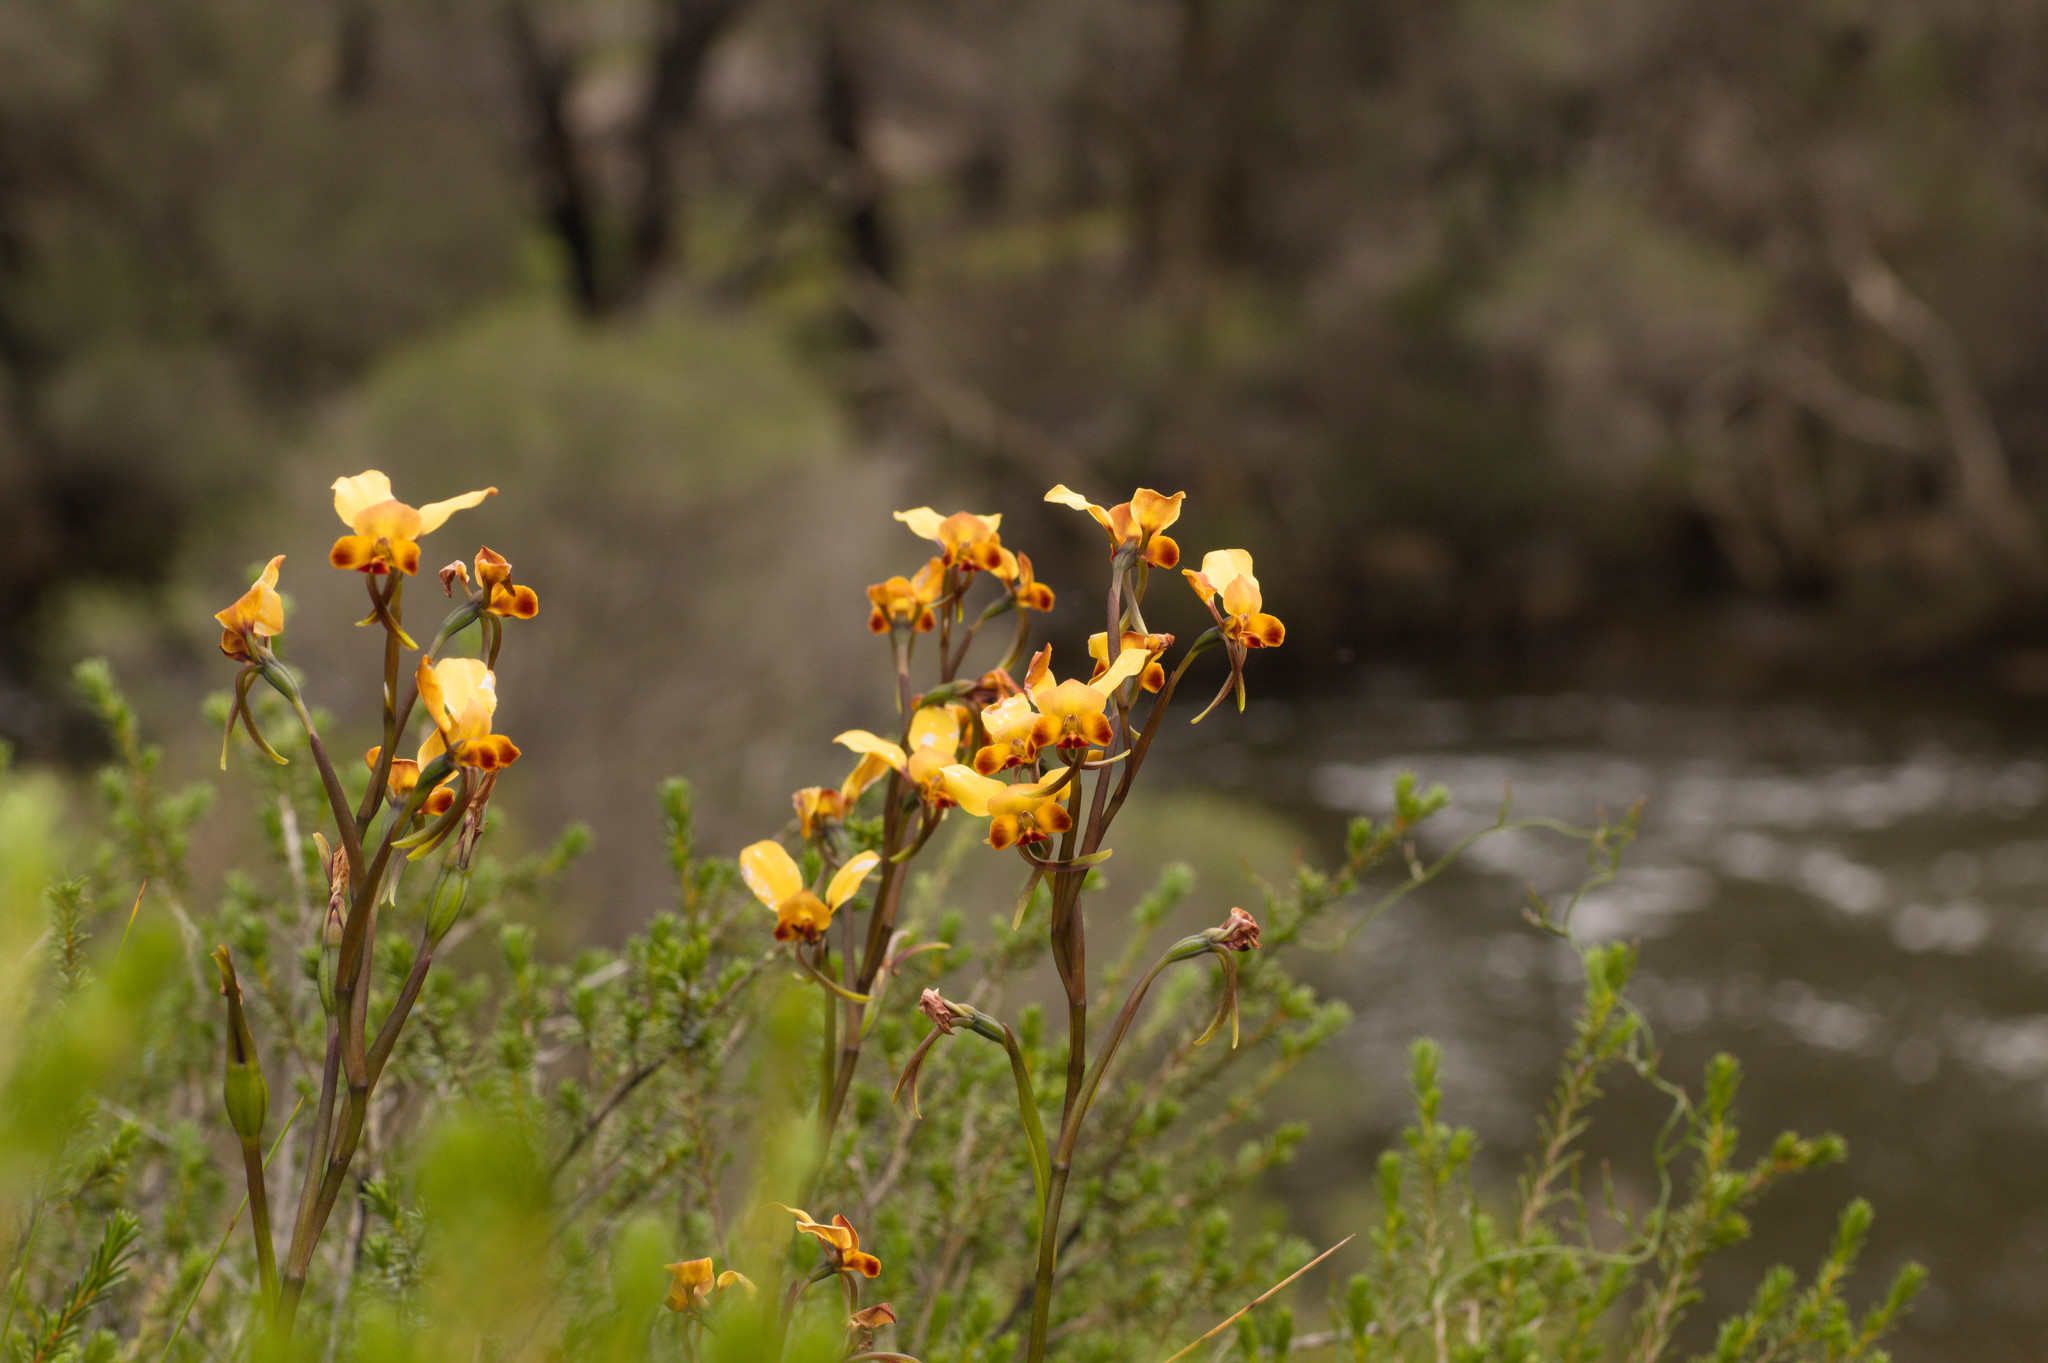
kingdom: Plantae
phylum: Tracheophyta
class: Liliopsida
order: Asparagales
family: Orchidaceae
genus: Diuris
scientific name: Diuris brumalis
